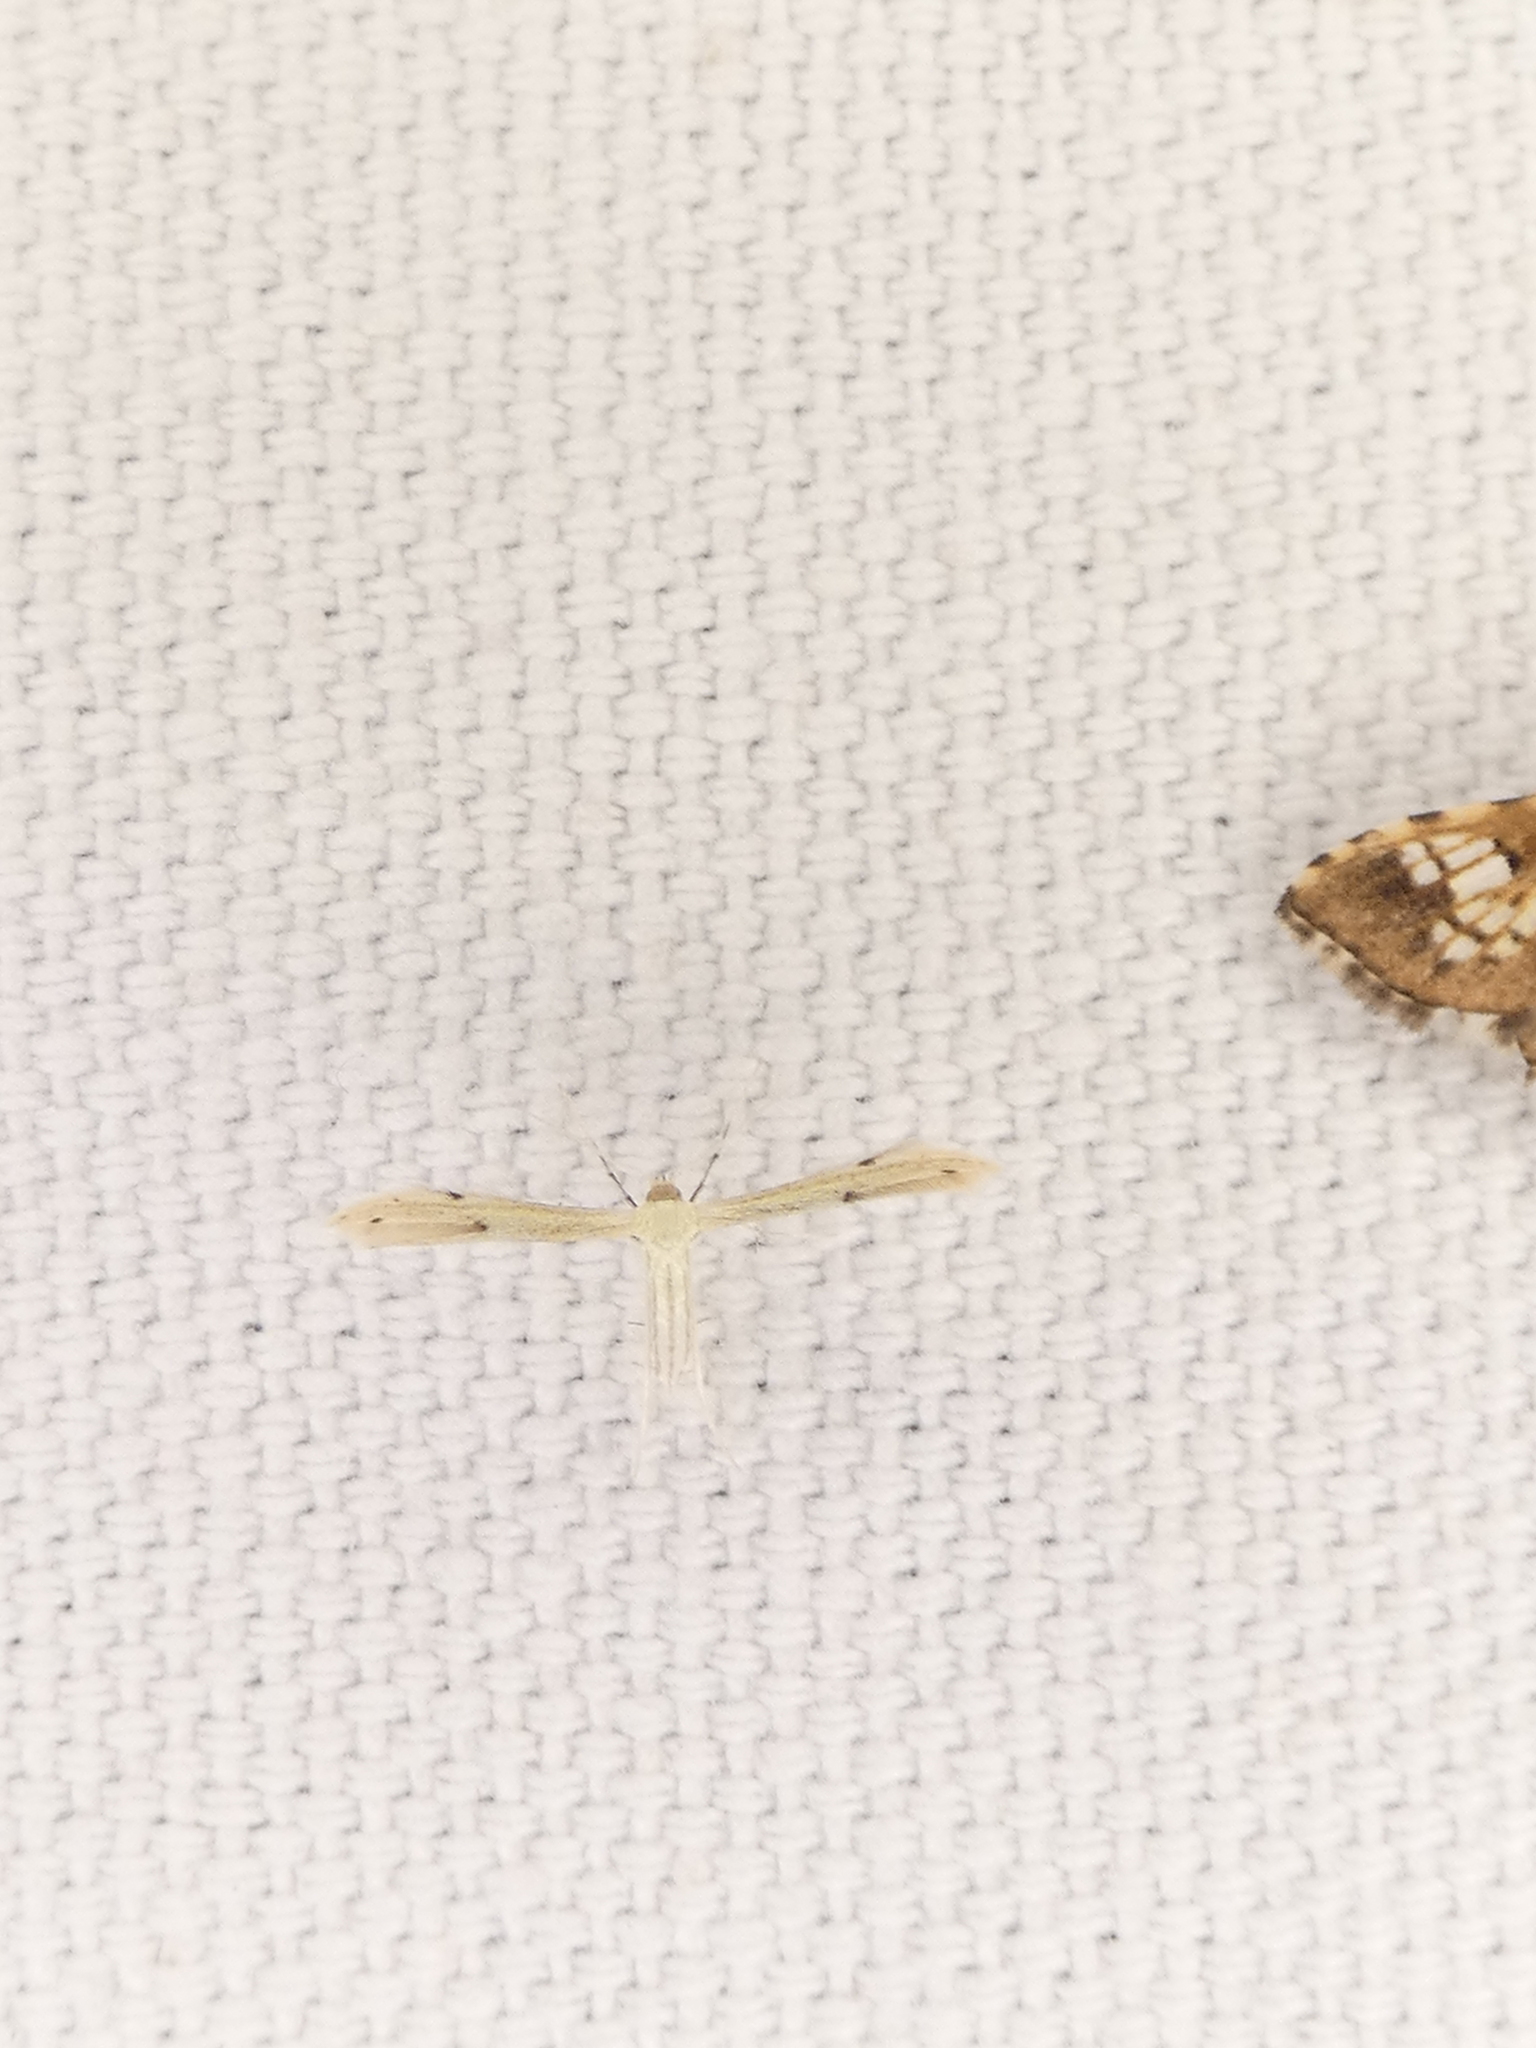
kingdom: Animalia
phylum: Arthropoda
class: Insecta
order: Lepidoptera
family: Pterophoridae
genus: Adaina
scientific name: Adaina
